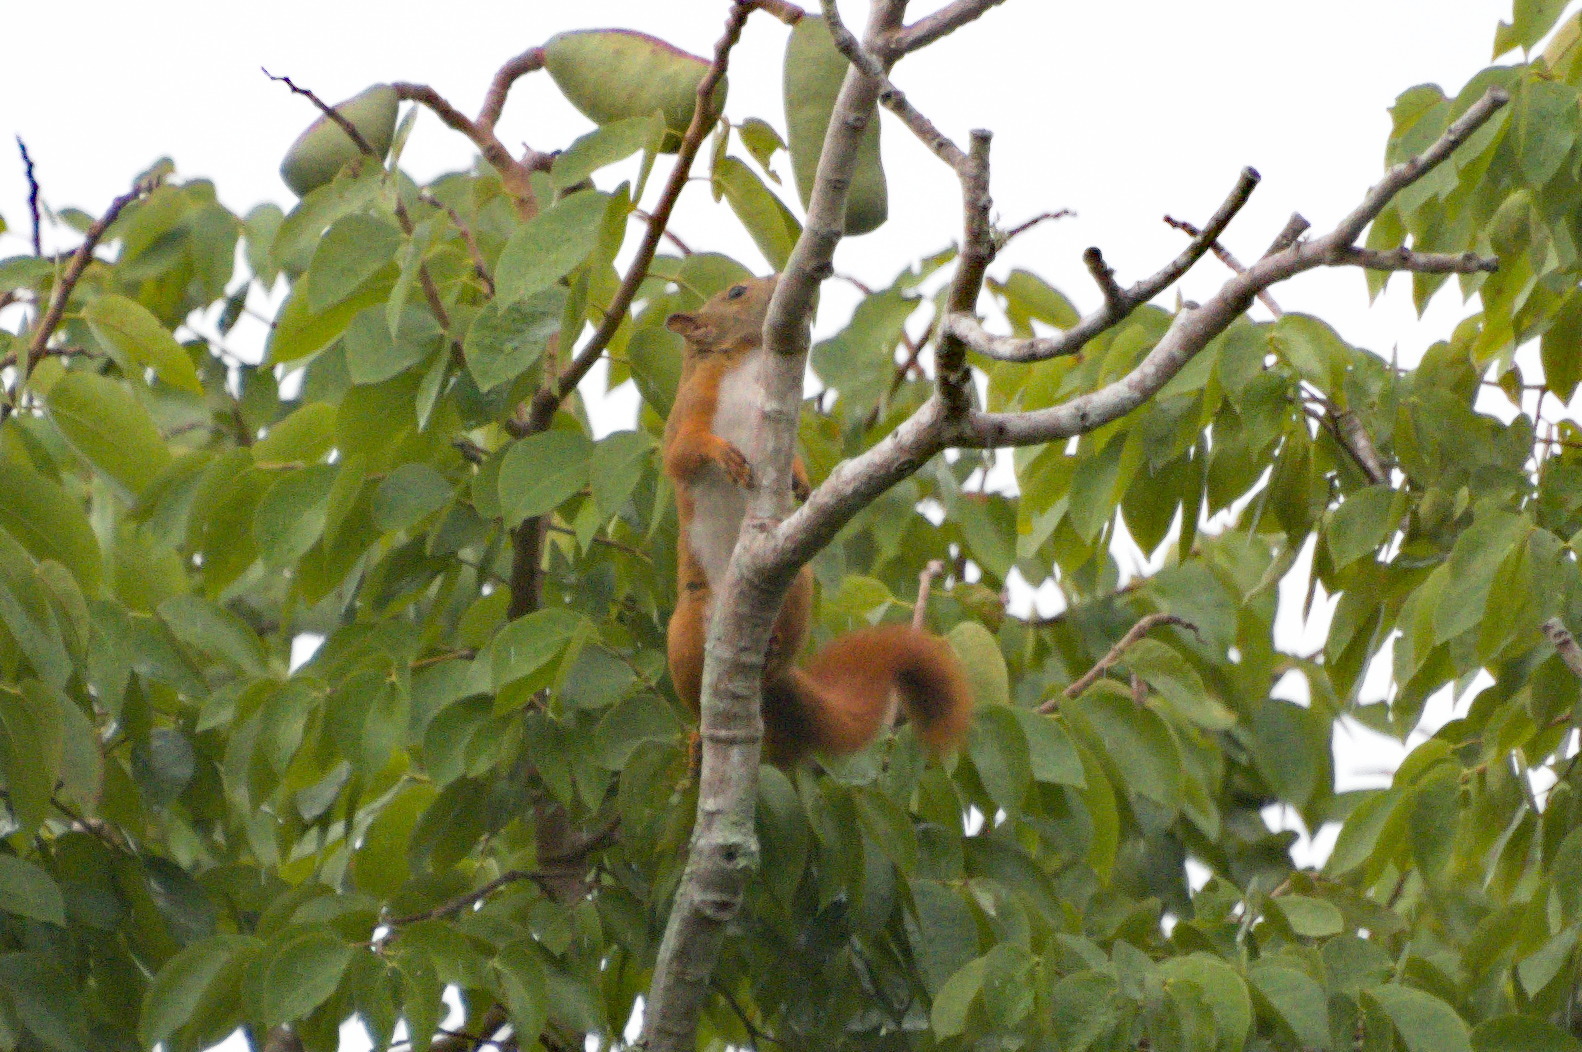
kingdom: Animalia
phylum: Chordata
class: Mammalia
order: Rodentia
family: Sciuridae
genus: Sciurus
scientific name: Sciurus granatensis
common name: Red-tailed squirrel
